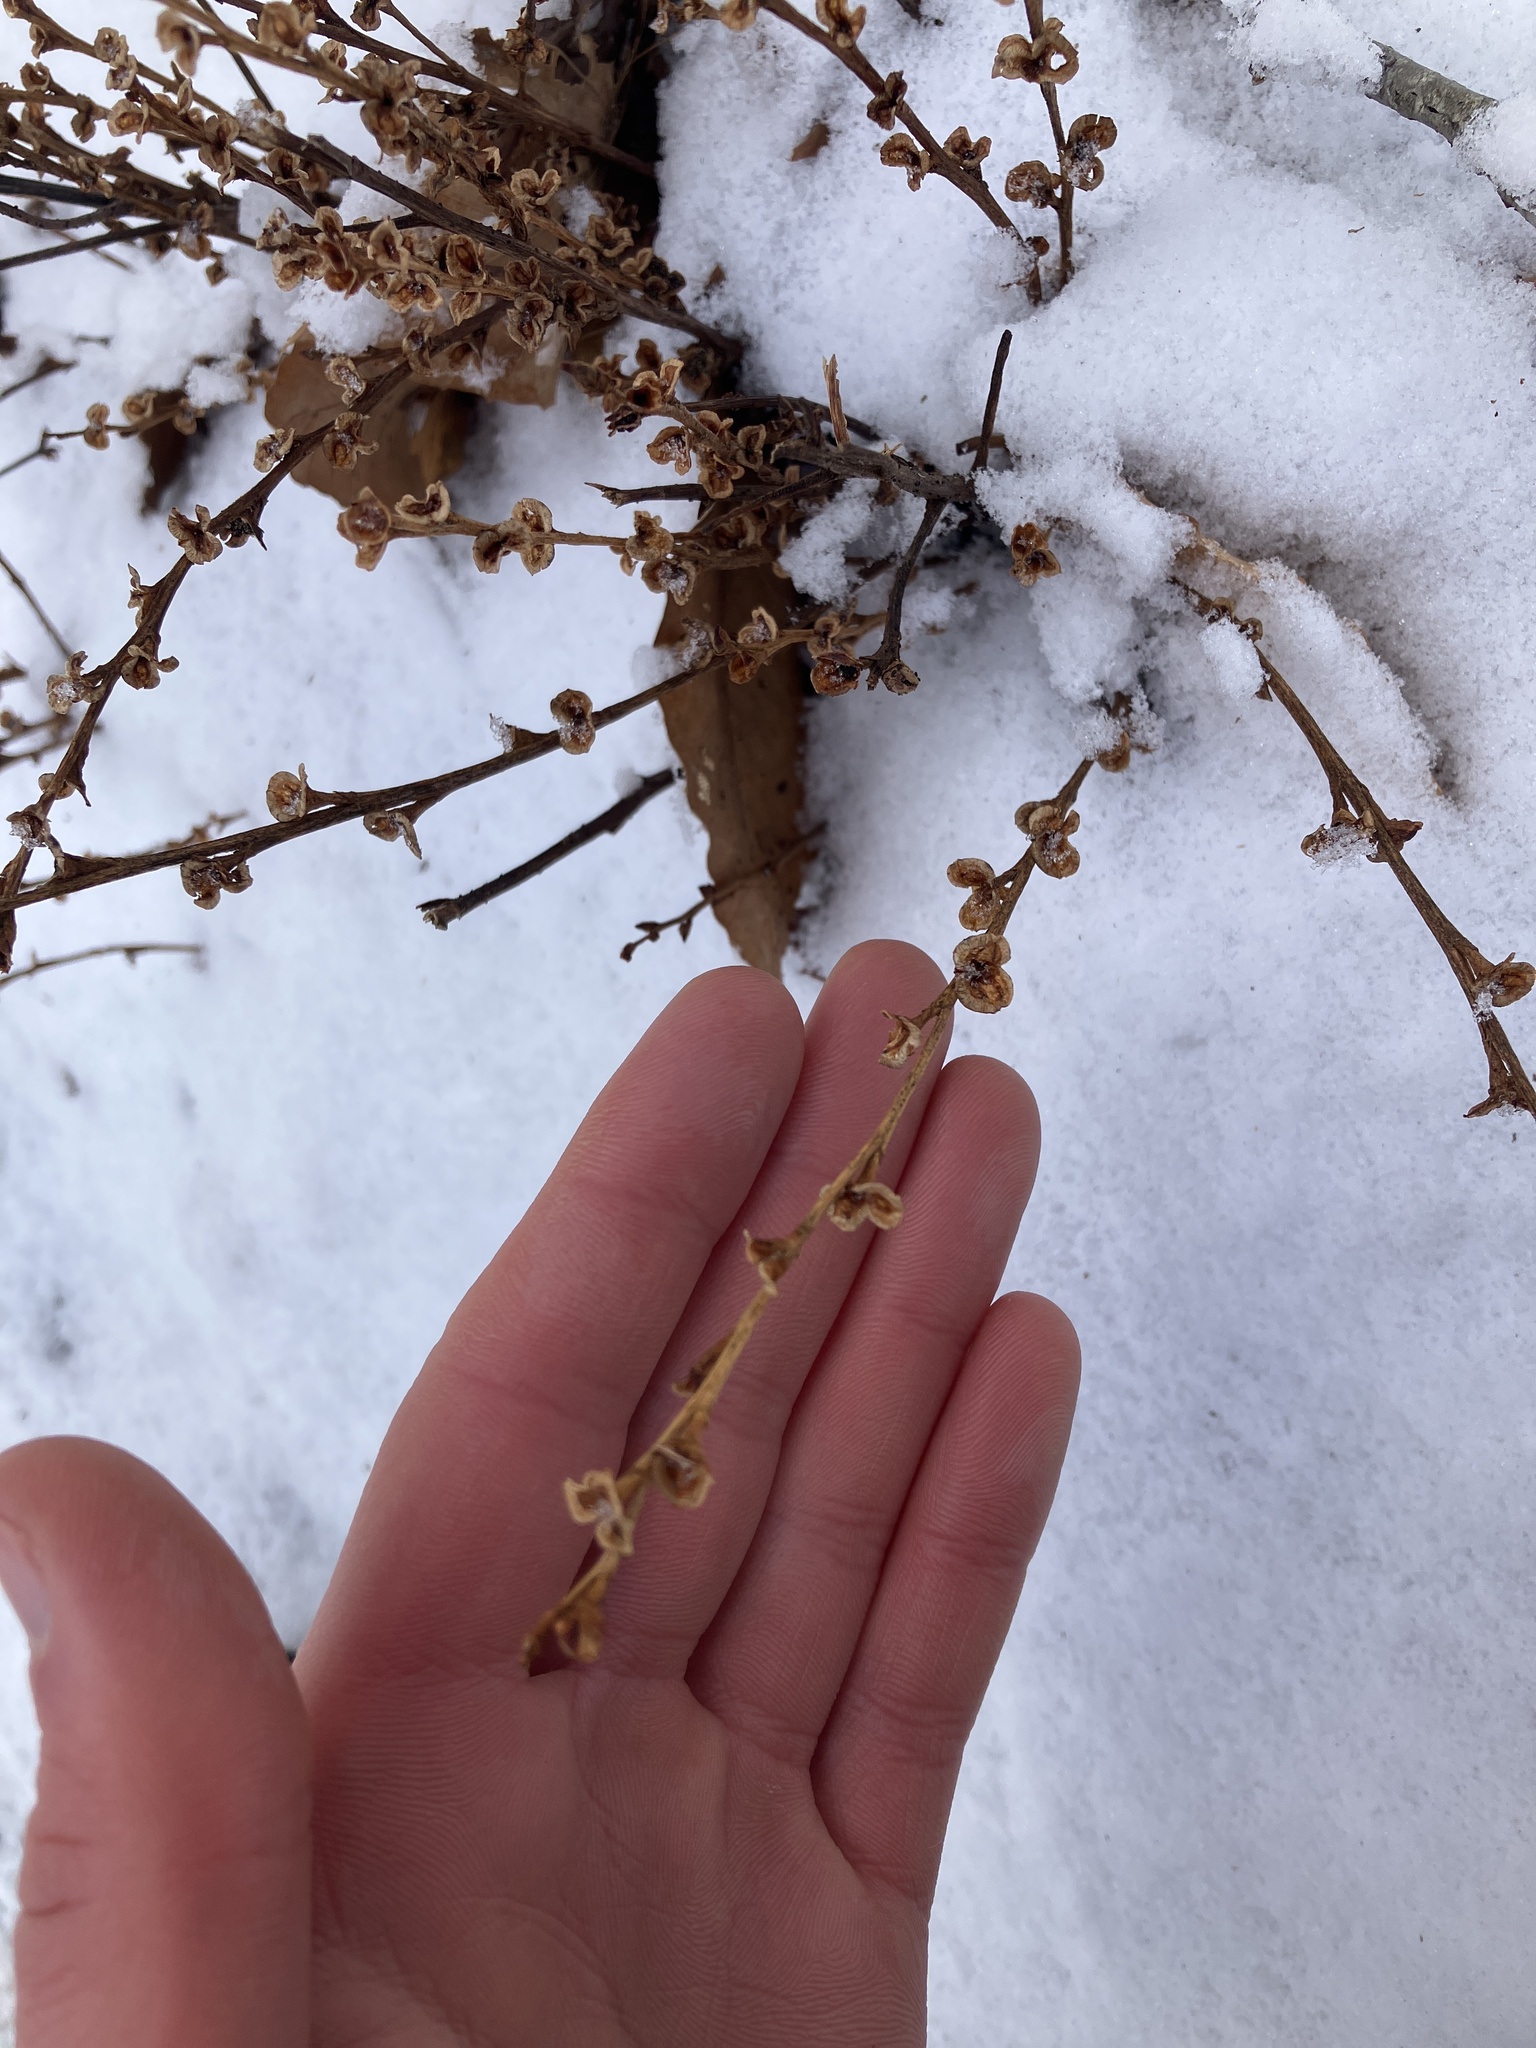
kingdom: Plantae
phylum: Tracheophyta
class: Magnoliopsida
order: Lamiales
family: Orobanchaceae
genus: Epifagus
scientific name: Epifagus virginiana
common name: Beechdrops
